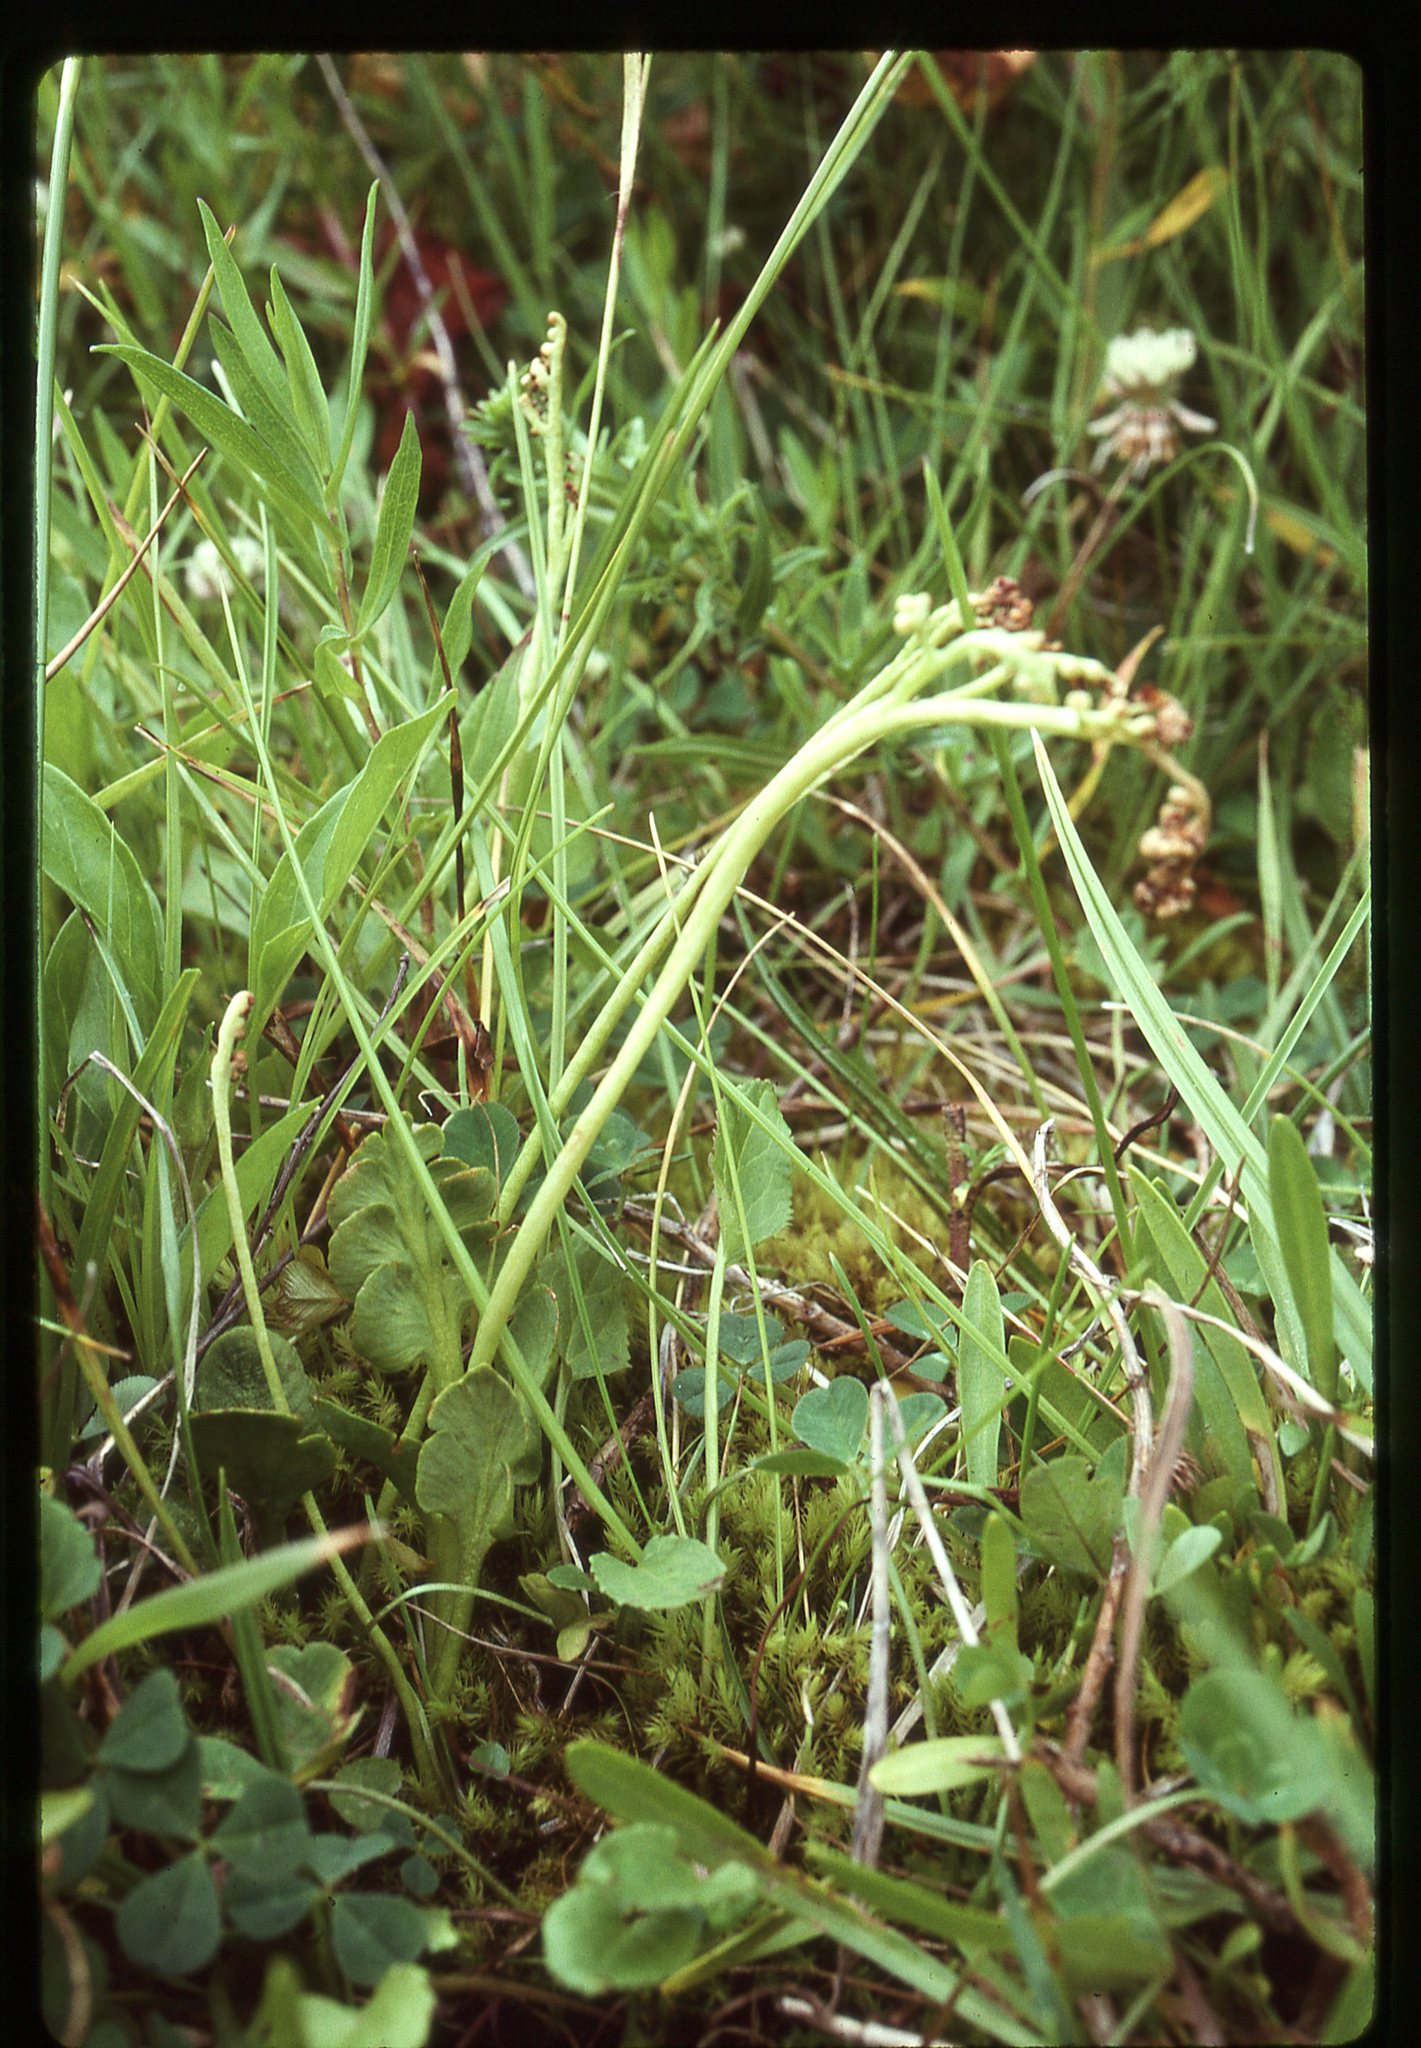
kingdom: Plantae
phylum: Tracheophyta
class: Polypodiopsida
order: Ophioglossales
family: Ophioglossaceae
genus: Botrychium
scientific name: Botrychium simplex
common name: Least moonwort
